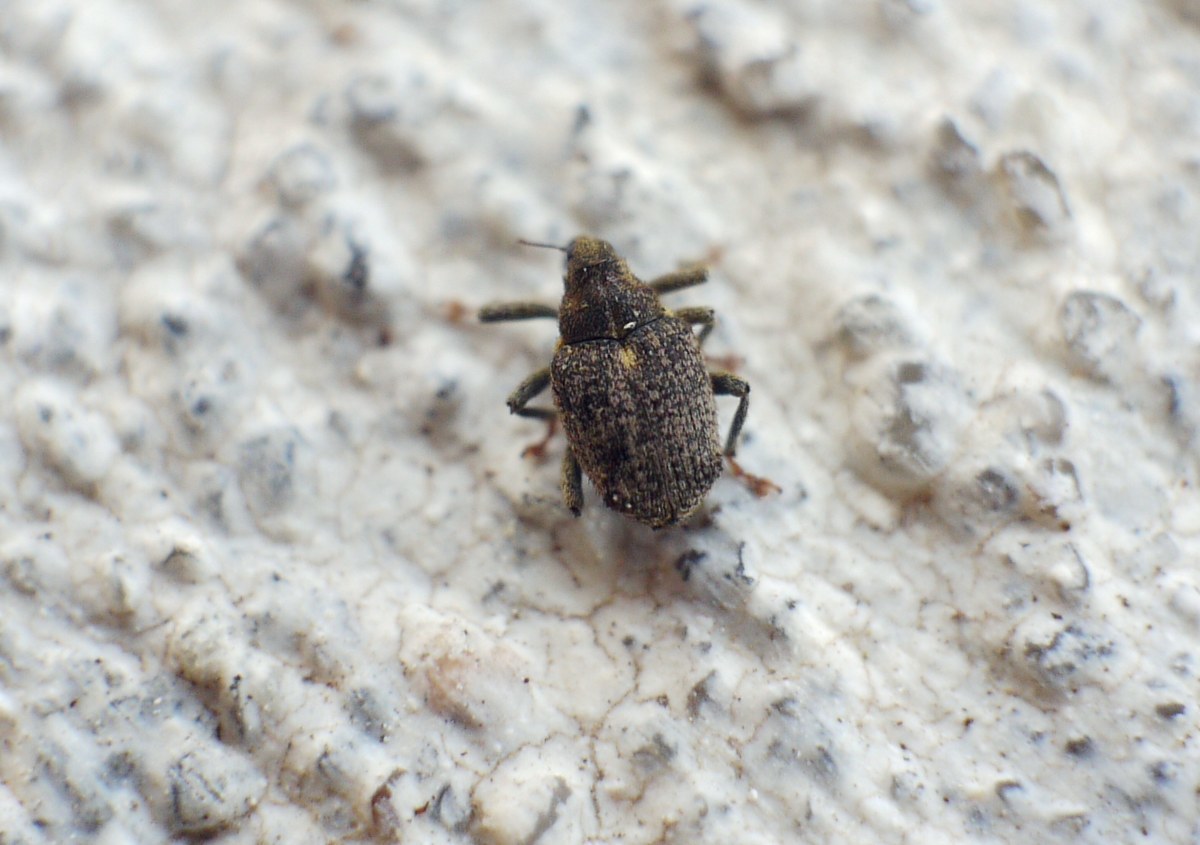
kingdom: Animalia
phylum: Arthropoda
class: Insecta
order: Coleoptera
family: Curculionidae
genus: Ceutorhynchus
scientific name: Ceutorhynchus pallidactylus
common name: Cabbage stem weavil
